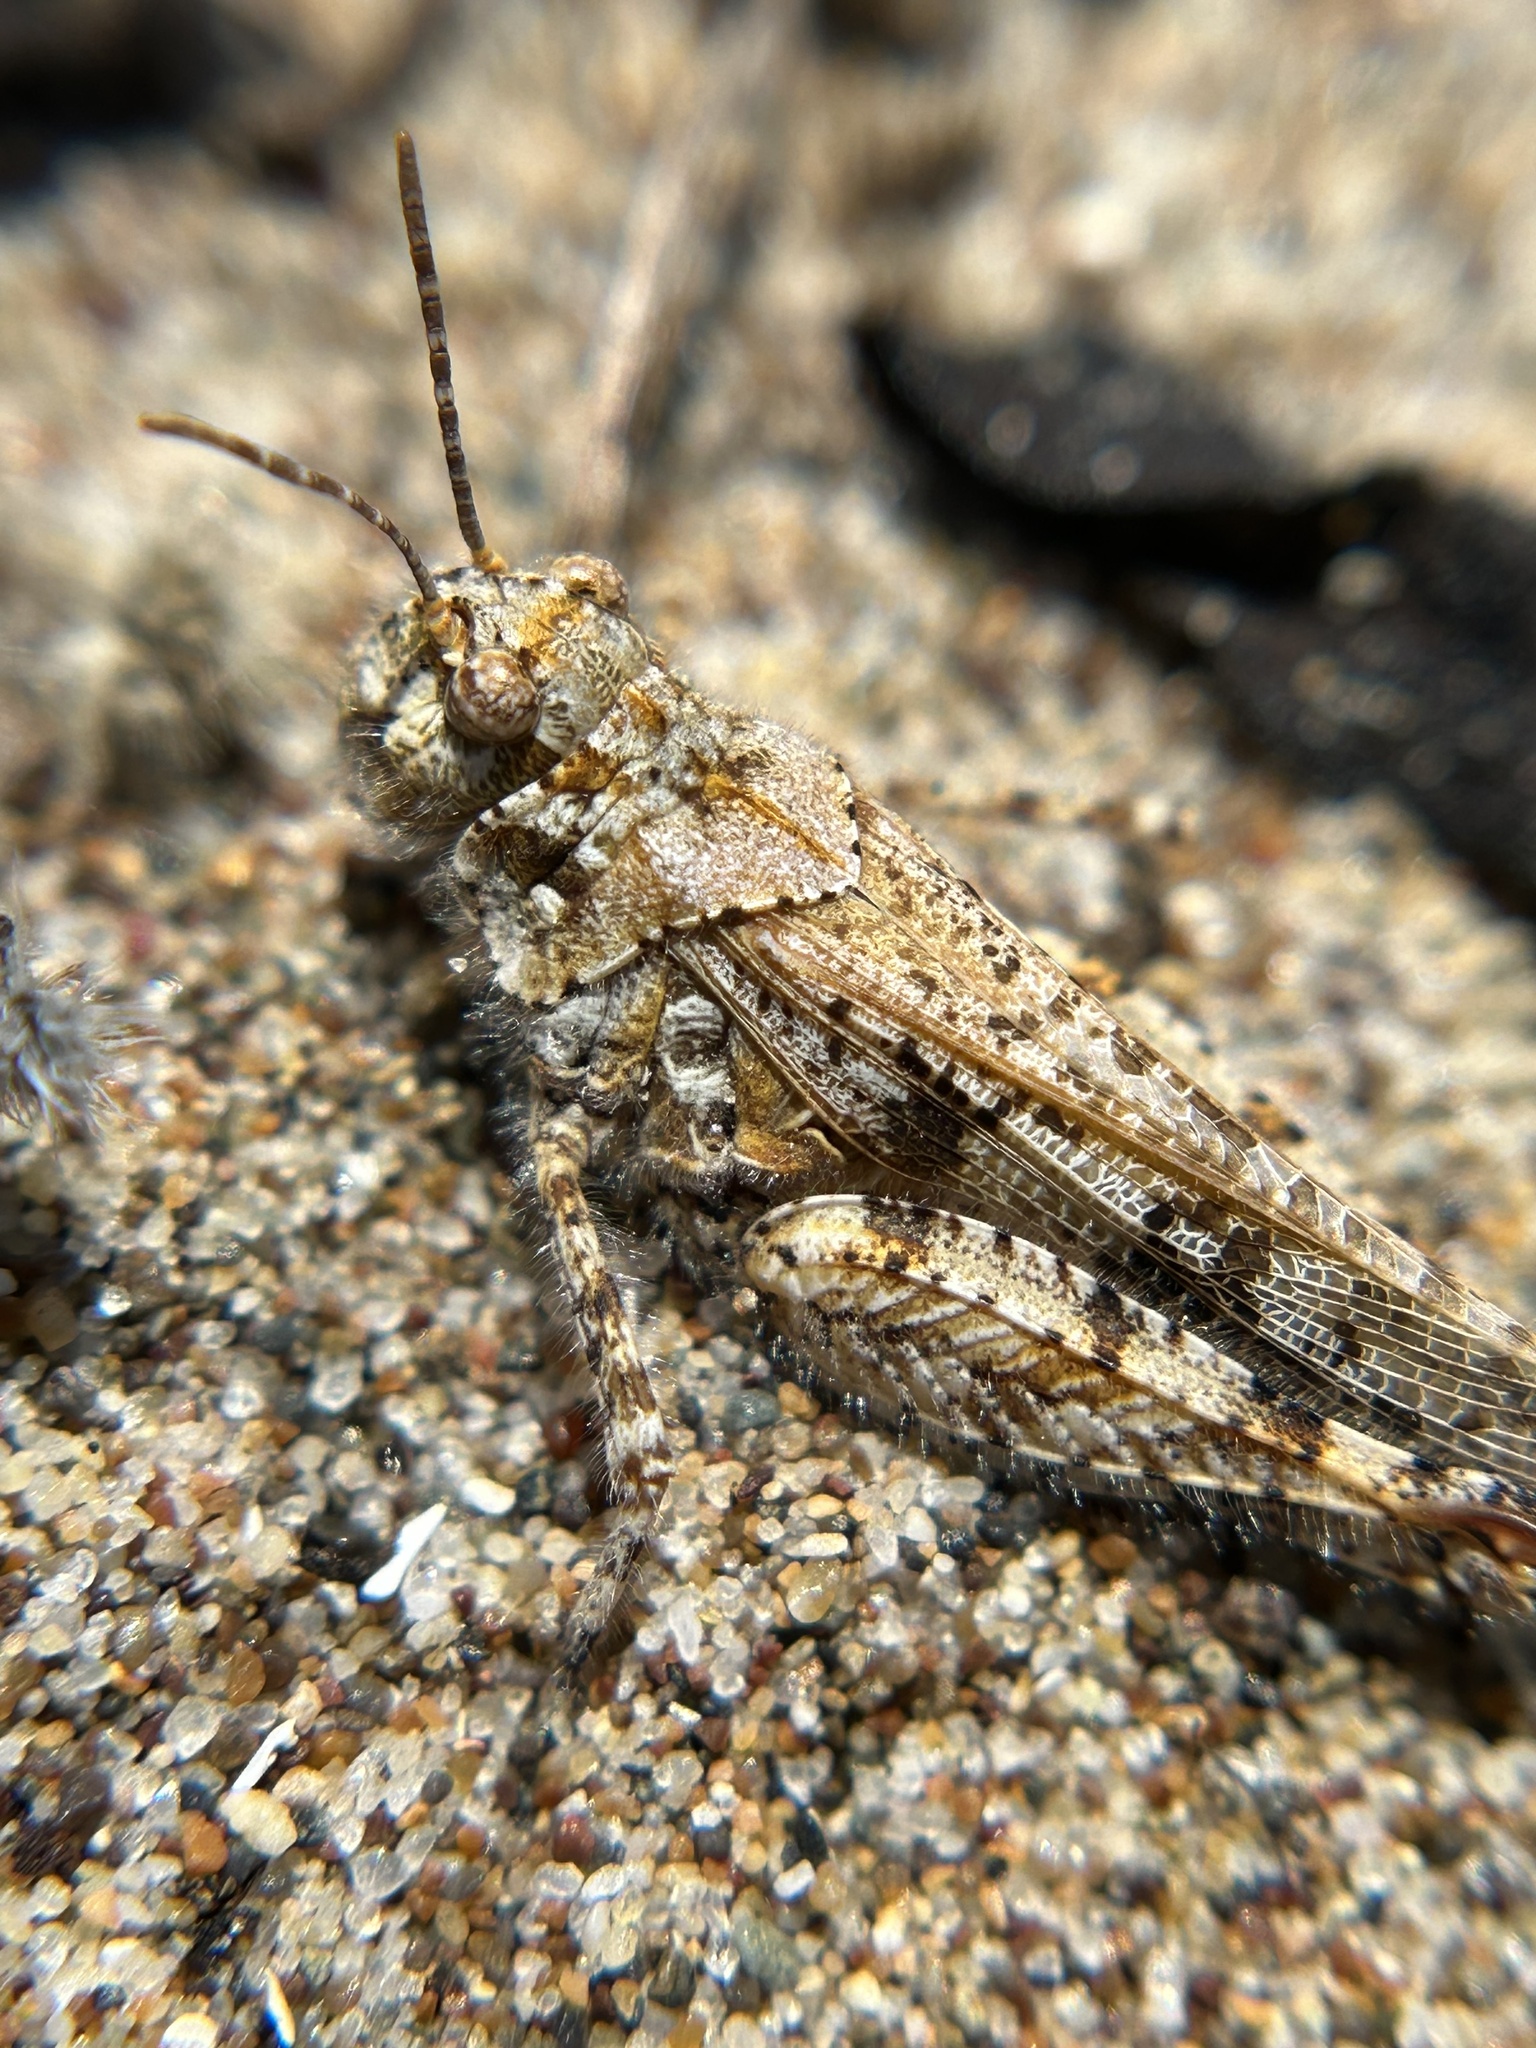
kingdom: Animalia
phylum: Arthropoda
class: Insecta
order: Orthoptera
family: Acrididae
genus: Microtes
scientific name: Microtes pogonata
